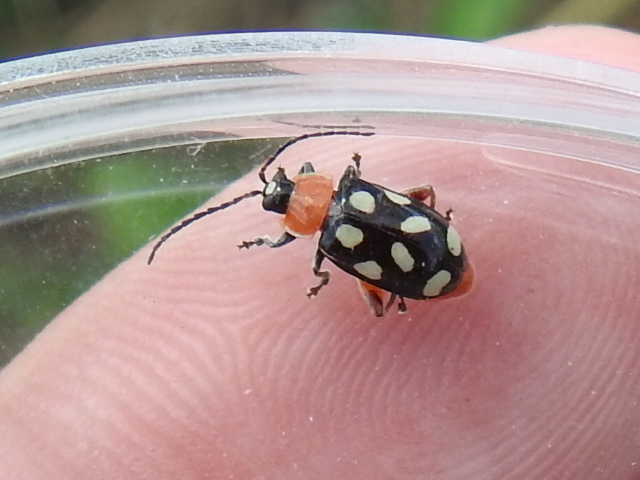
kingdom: Animalia
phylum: Arthropoda
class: Insecta
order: Coleoptera
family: Chrysomelidae
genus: Omophoita
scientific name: Omophoita cyanipennis
